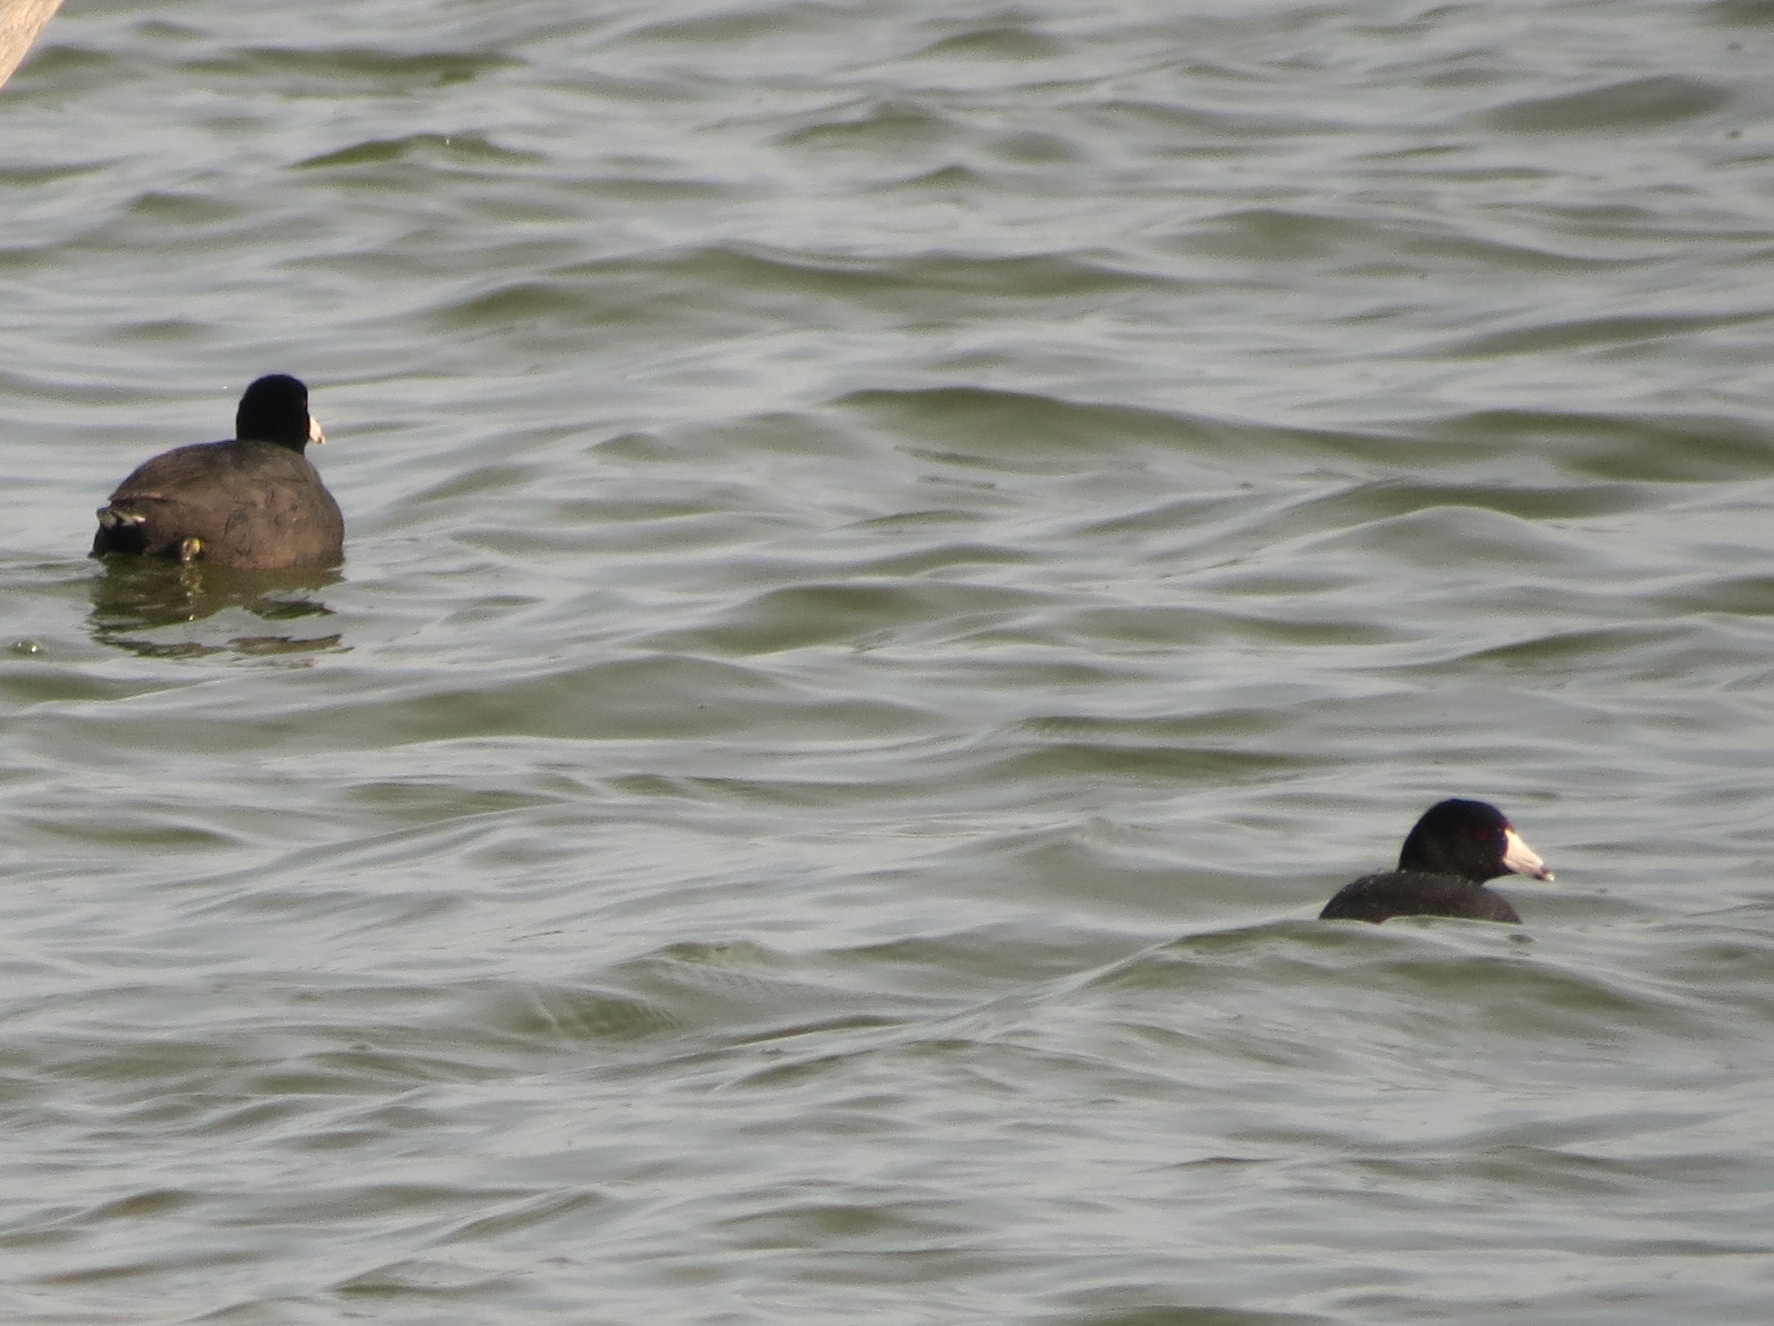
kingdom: Animalia
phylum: Chordata
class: Aves
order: Gruiformes
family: Rallidae
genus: Fulica
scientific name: Fulica americana
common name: American coot
